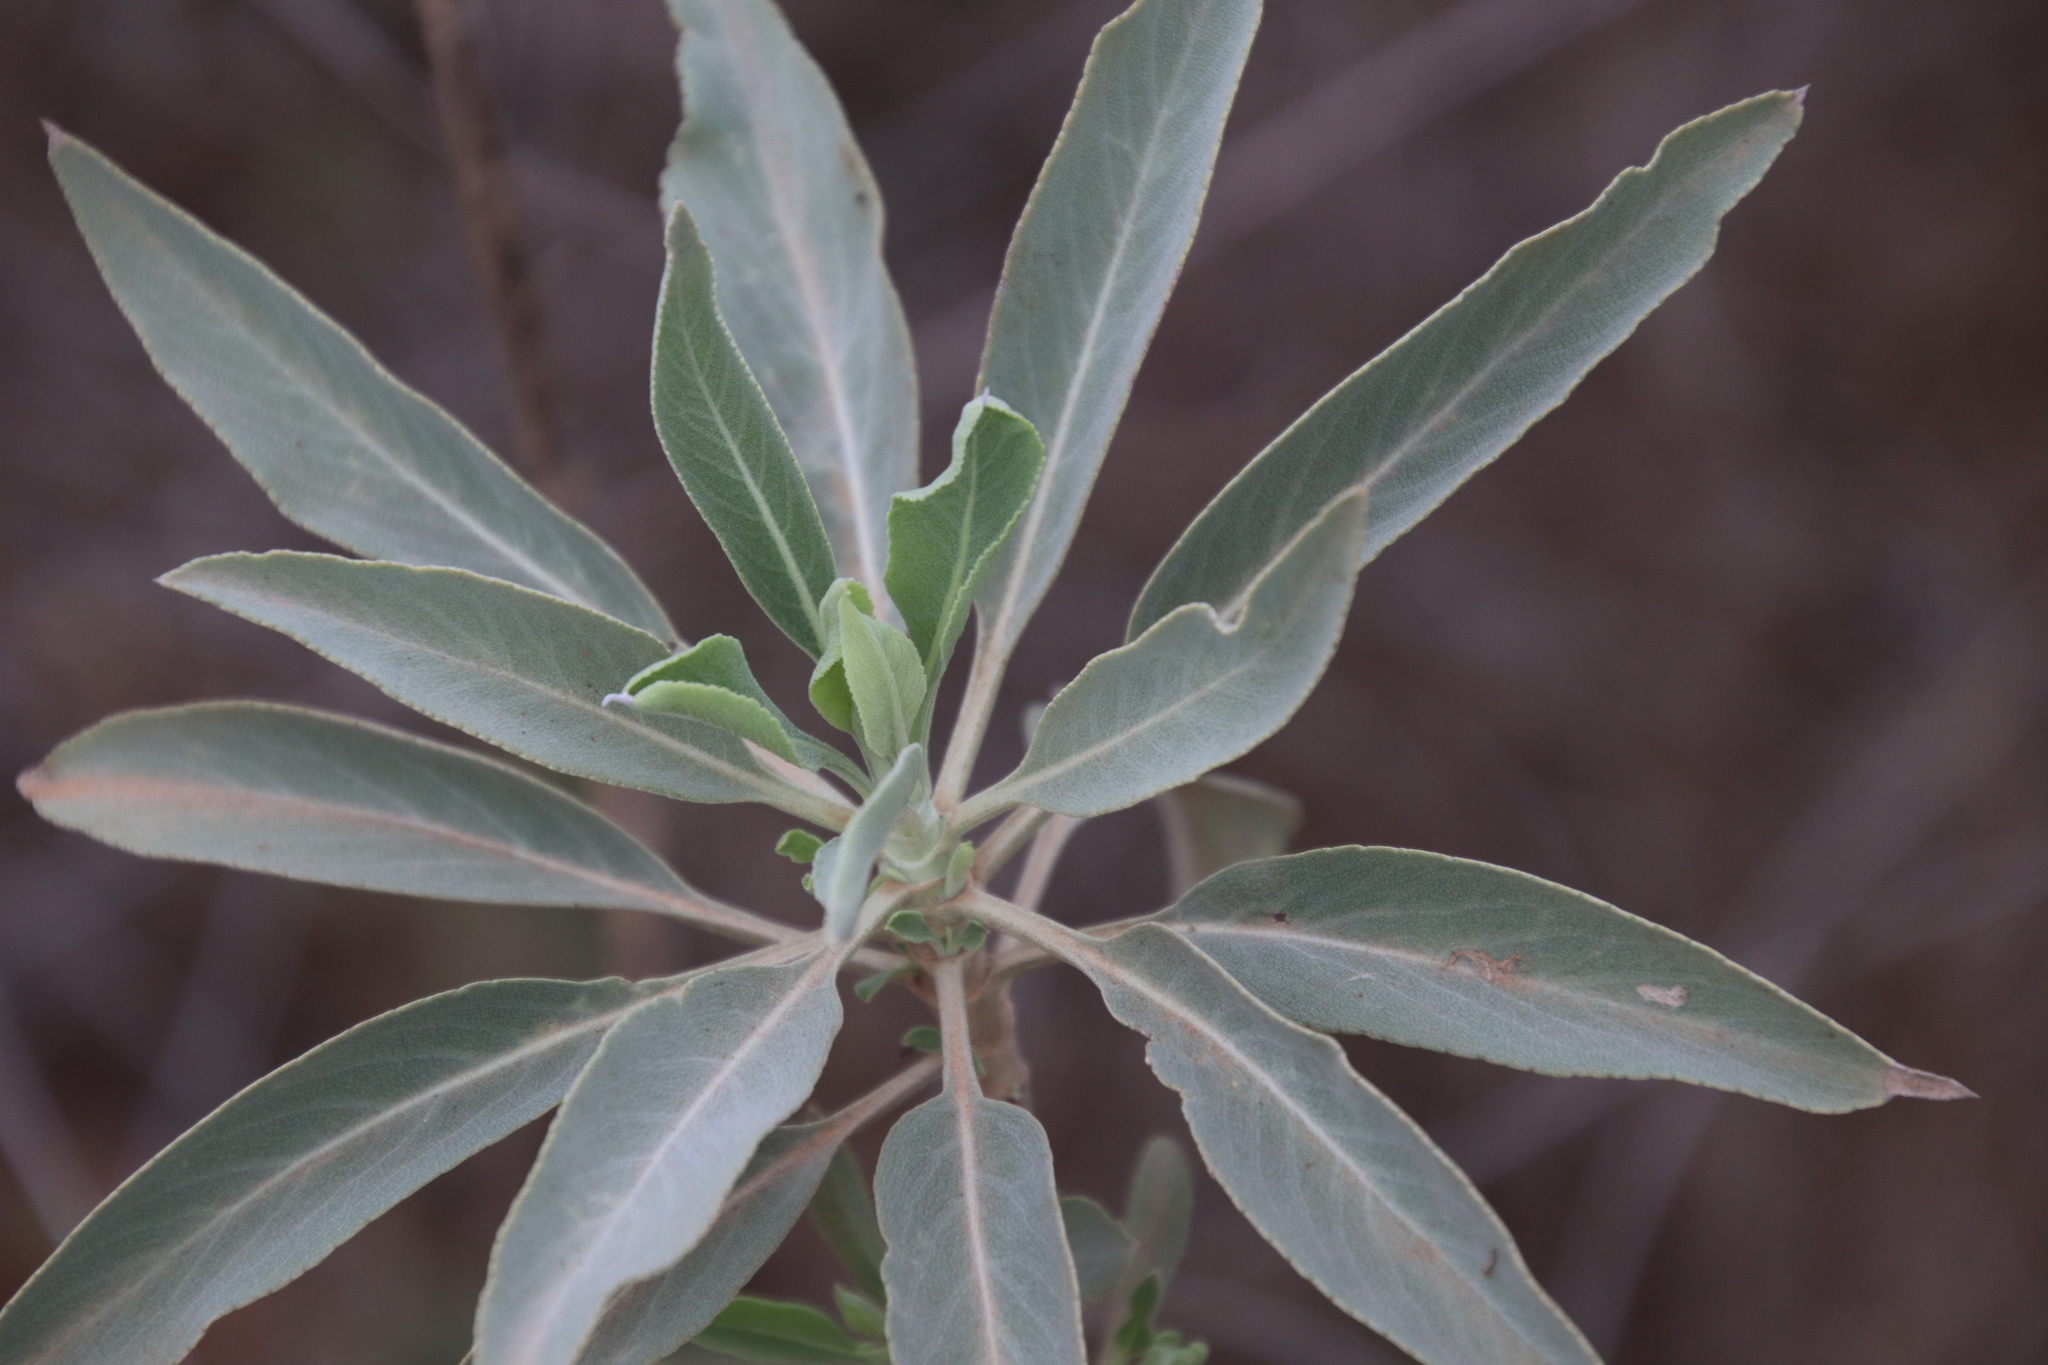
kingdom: Plantae
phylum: Tracheophyta
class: Magnoliopsida
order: Lamiales
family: Lamiaceae
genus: Salvia
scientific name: Salvia apiana
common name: White sage
